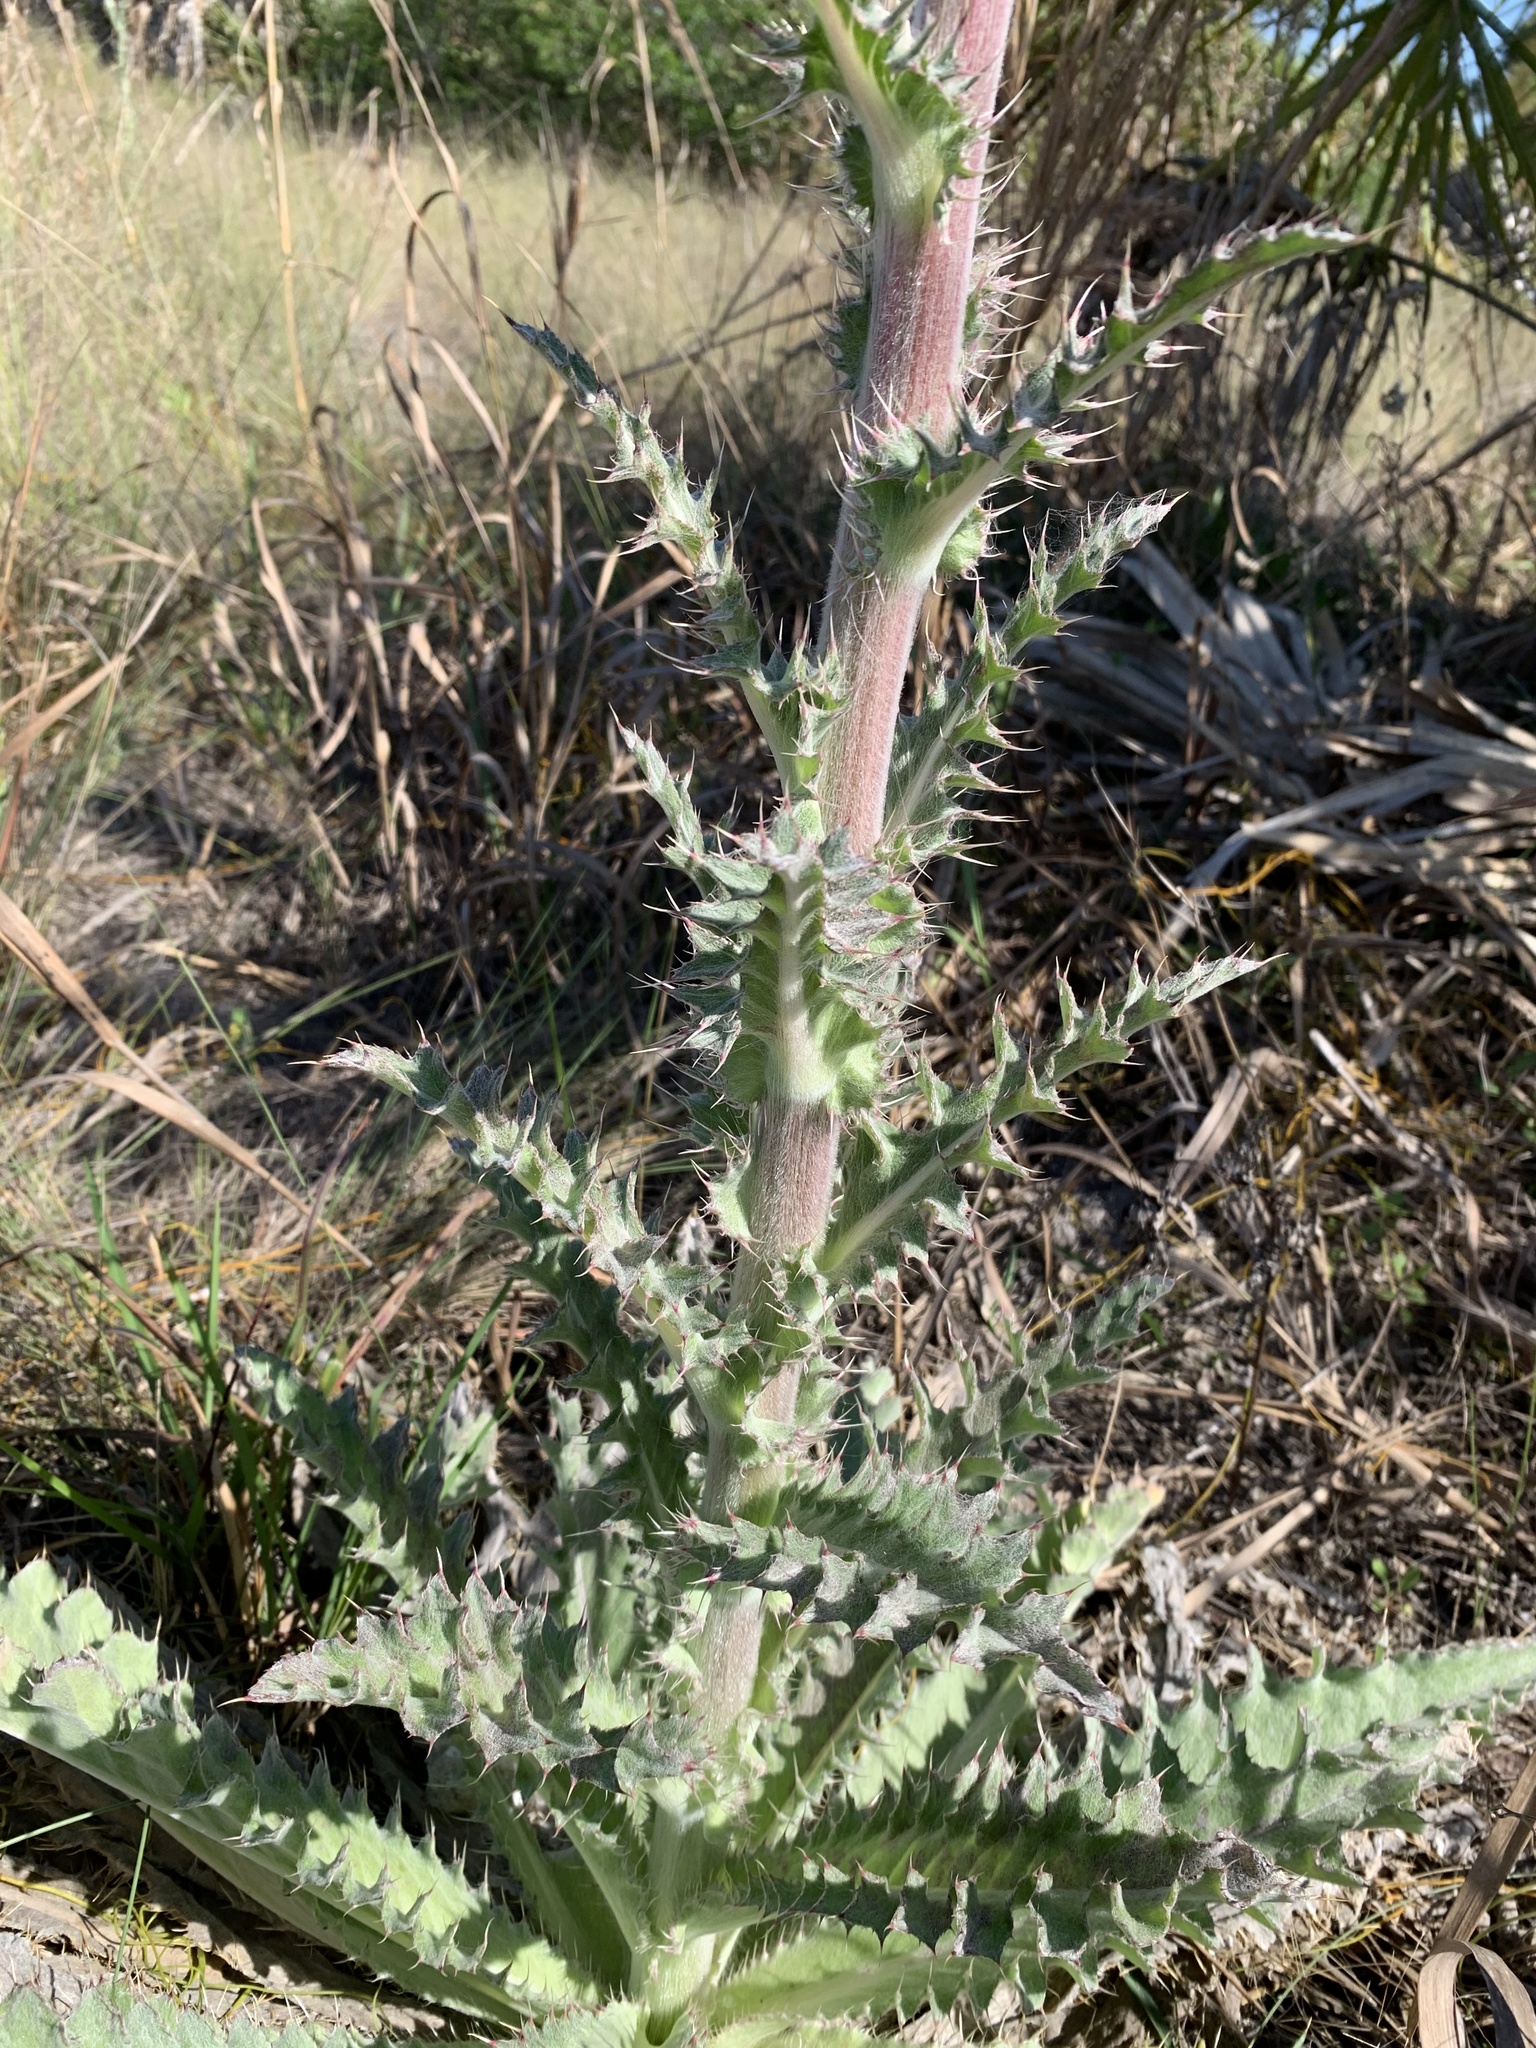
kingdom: Plantae
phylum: Tracheophyta
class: Magnoliopsida
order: Asterales
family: Asteraceae
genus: Cirsium
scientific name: Cirsium horridulum
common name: Bristly thistle
